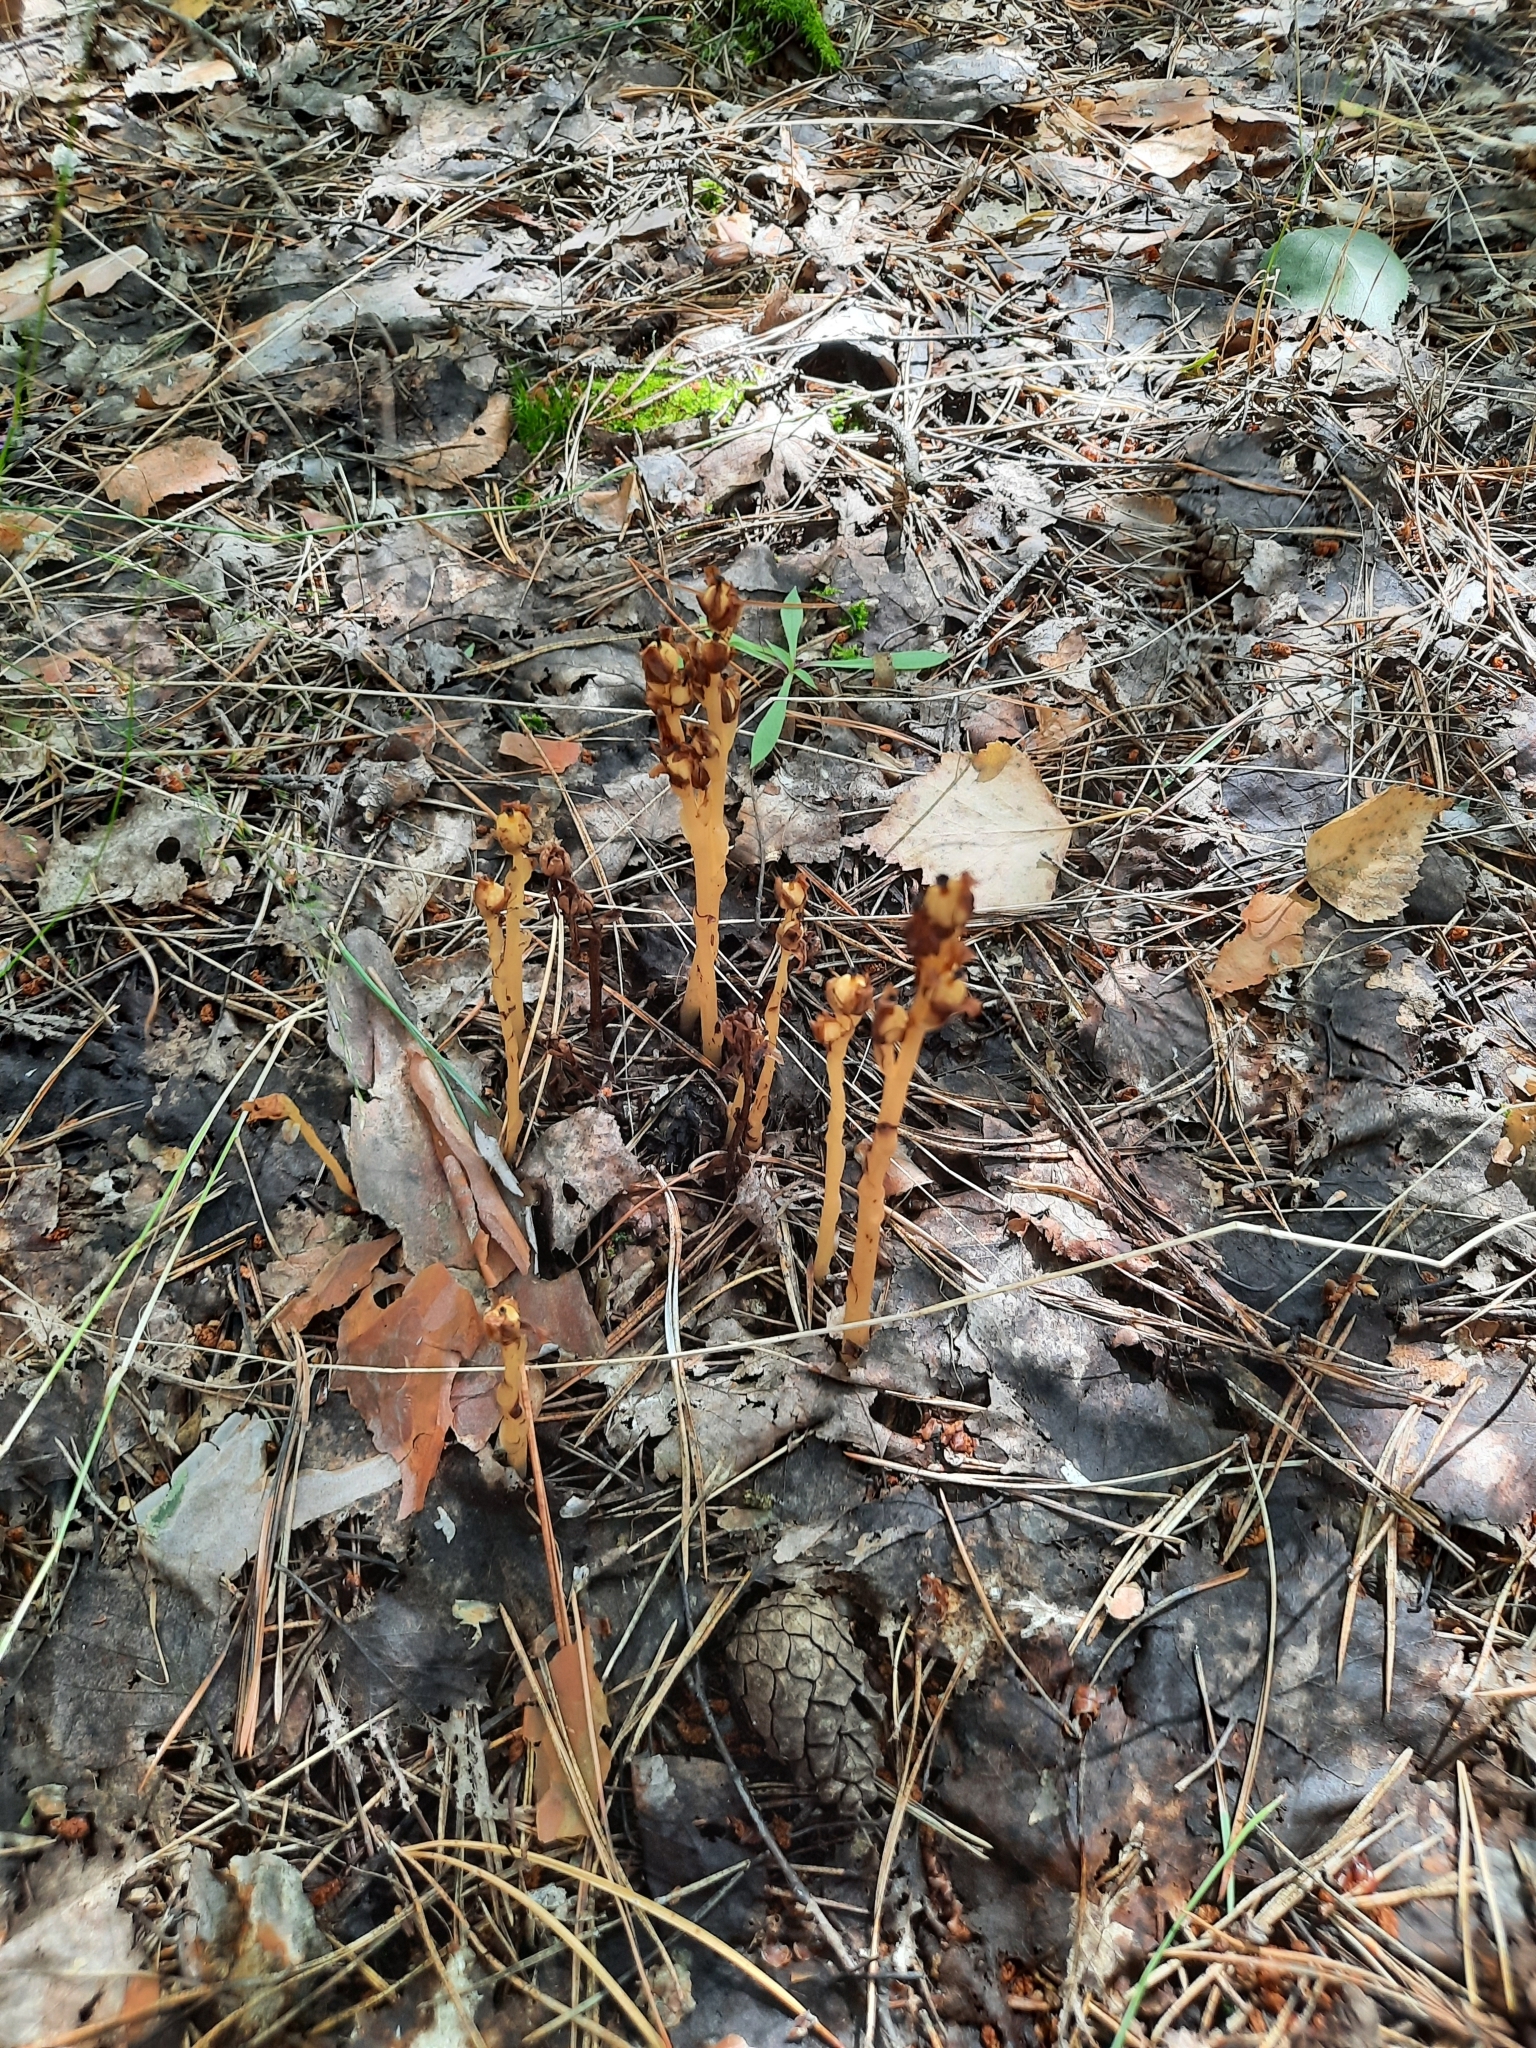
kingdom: Plantae
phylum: Tracheophyta
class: Magnoliopsida
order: Ericales
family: Ericaceae
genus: Hypopitys
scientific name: Hypopitys monotropa
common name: Yellow bird's-nest
